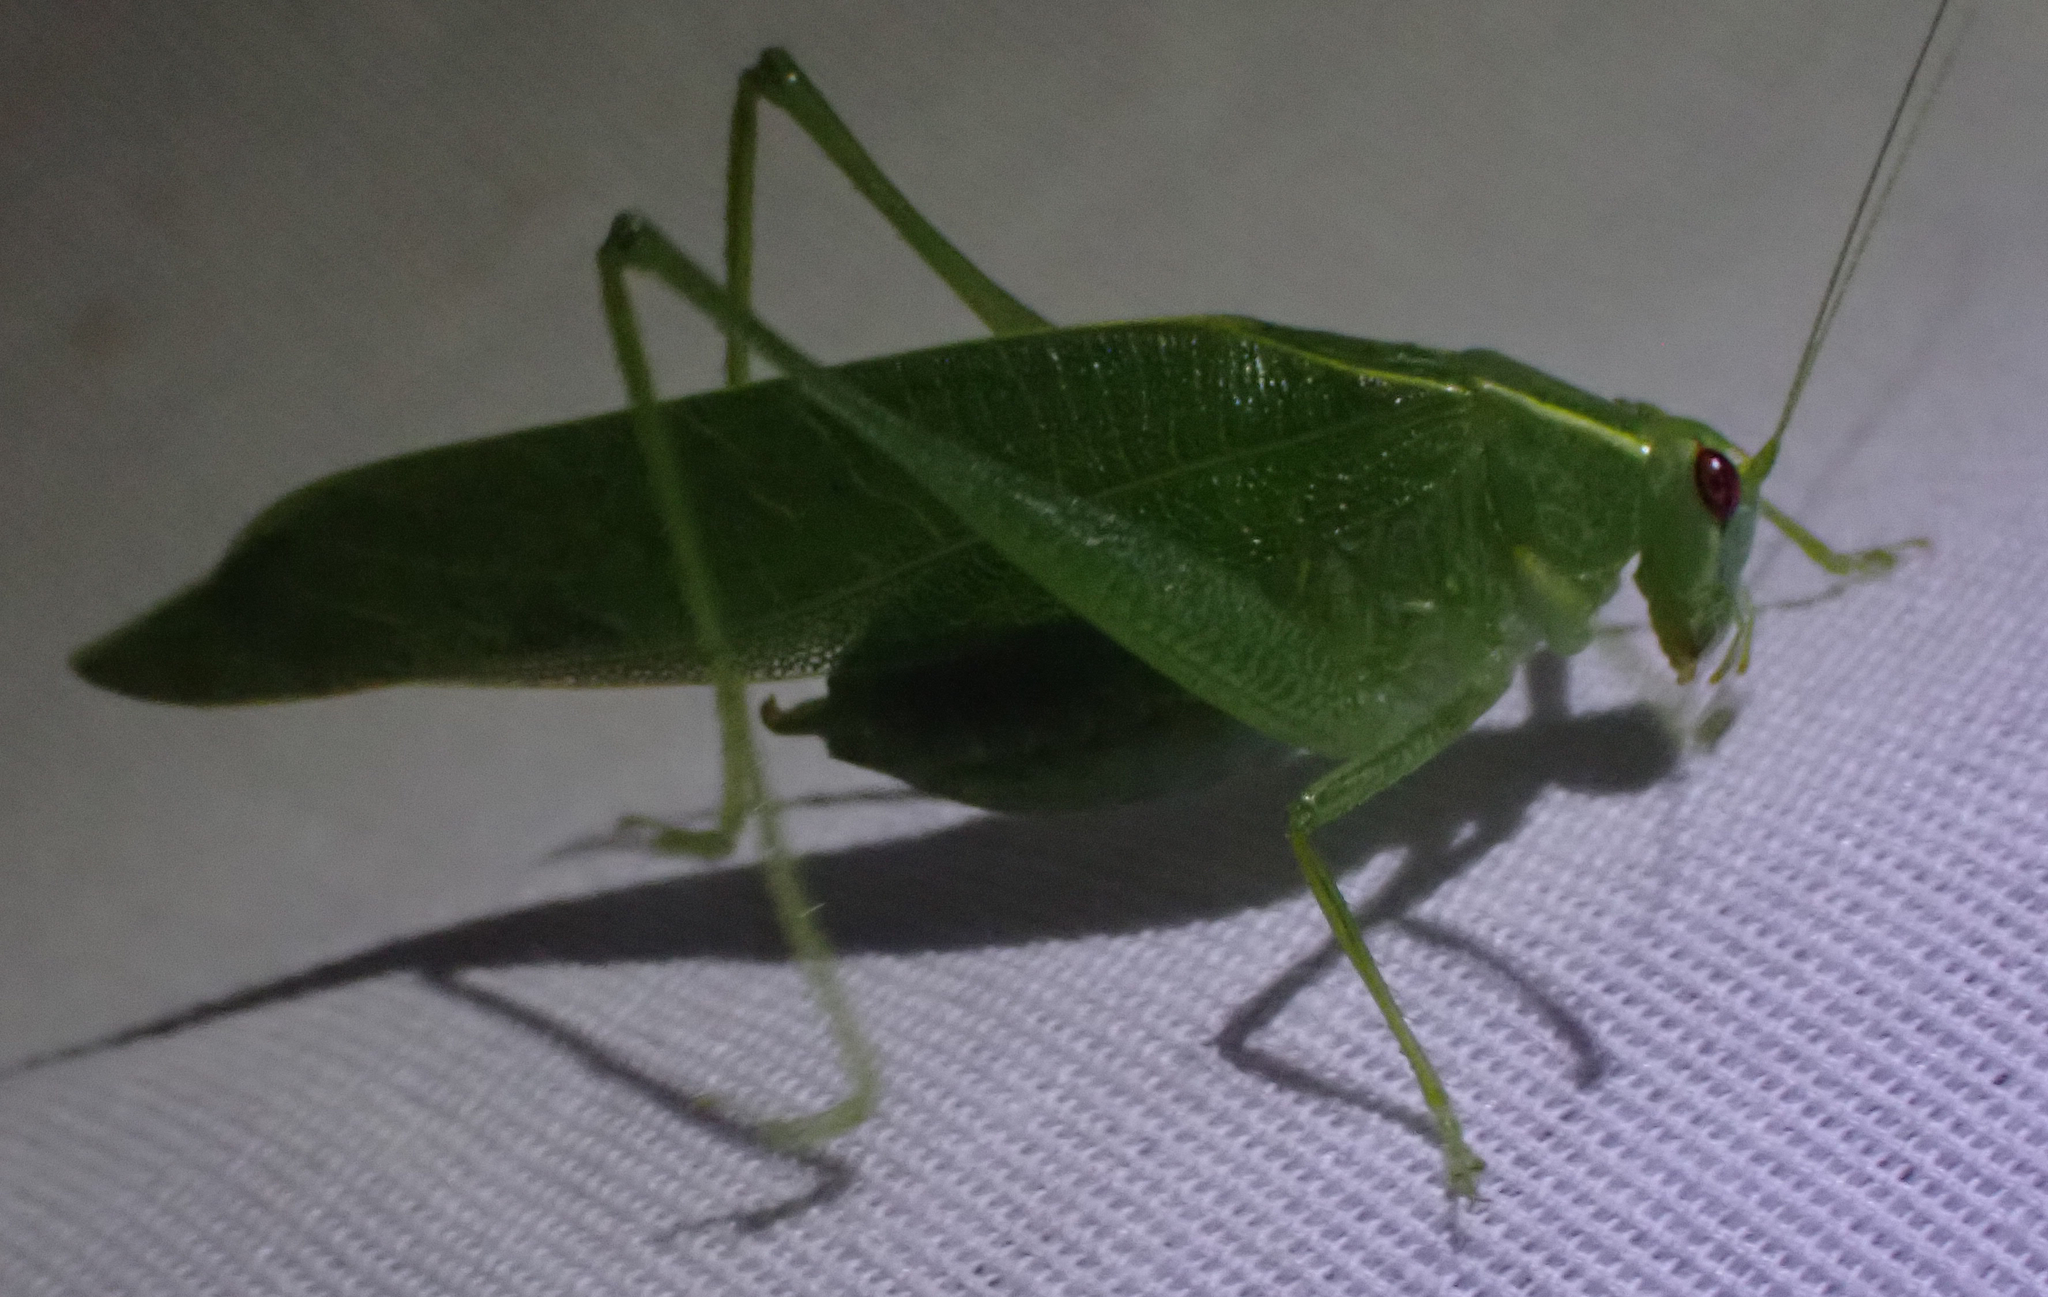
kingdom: Animalia
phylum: Arthropoda
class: Insecta
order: Orthoptera
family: Tettigoniidae
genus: Montezumina
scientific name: Montezumina modesta
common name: Modest katydid
